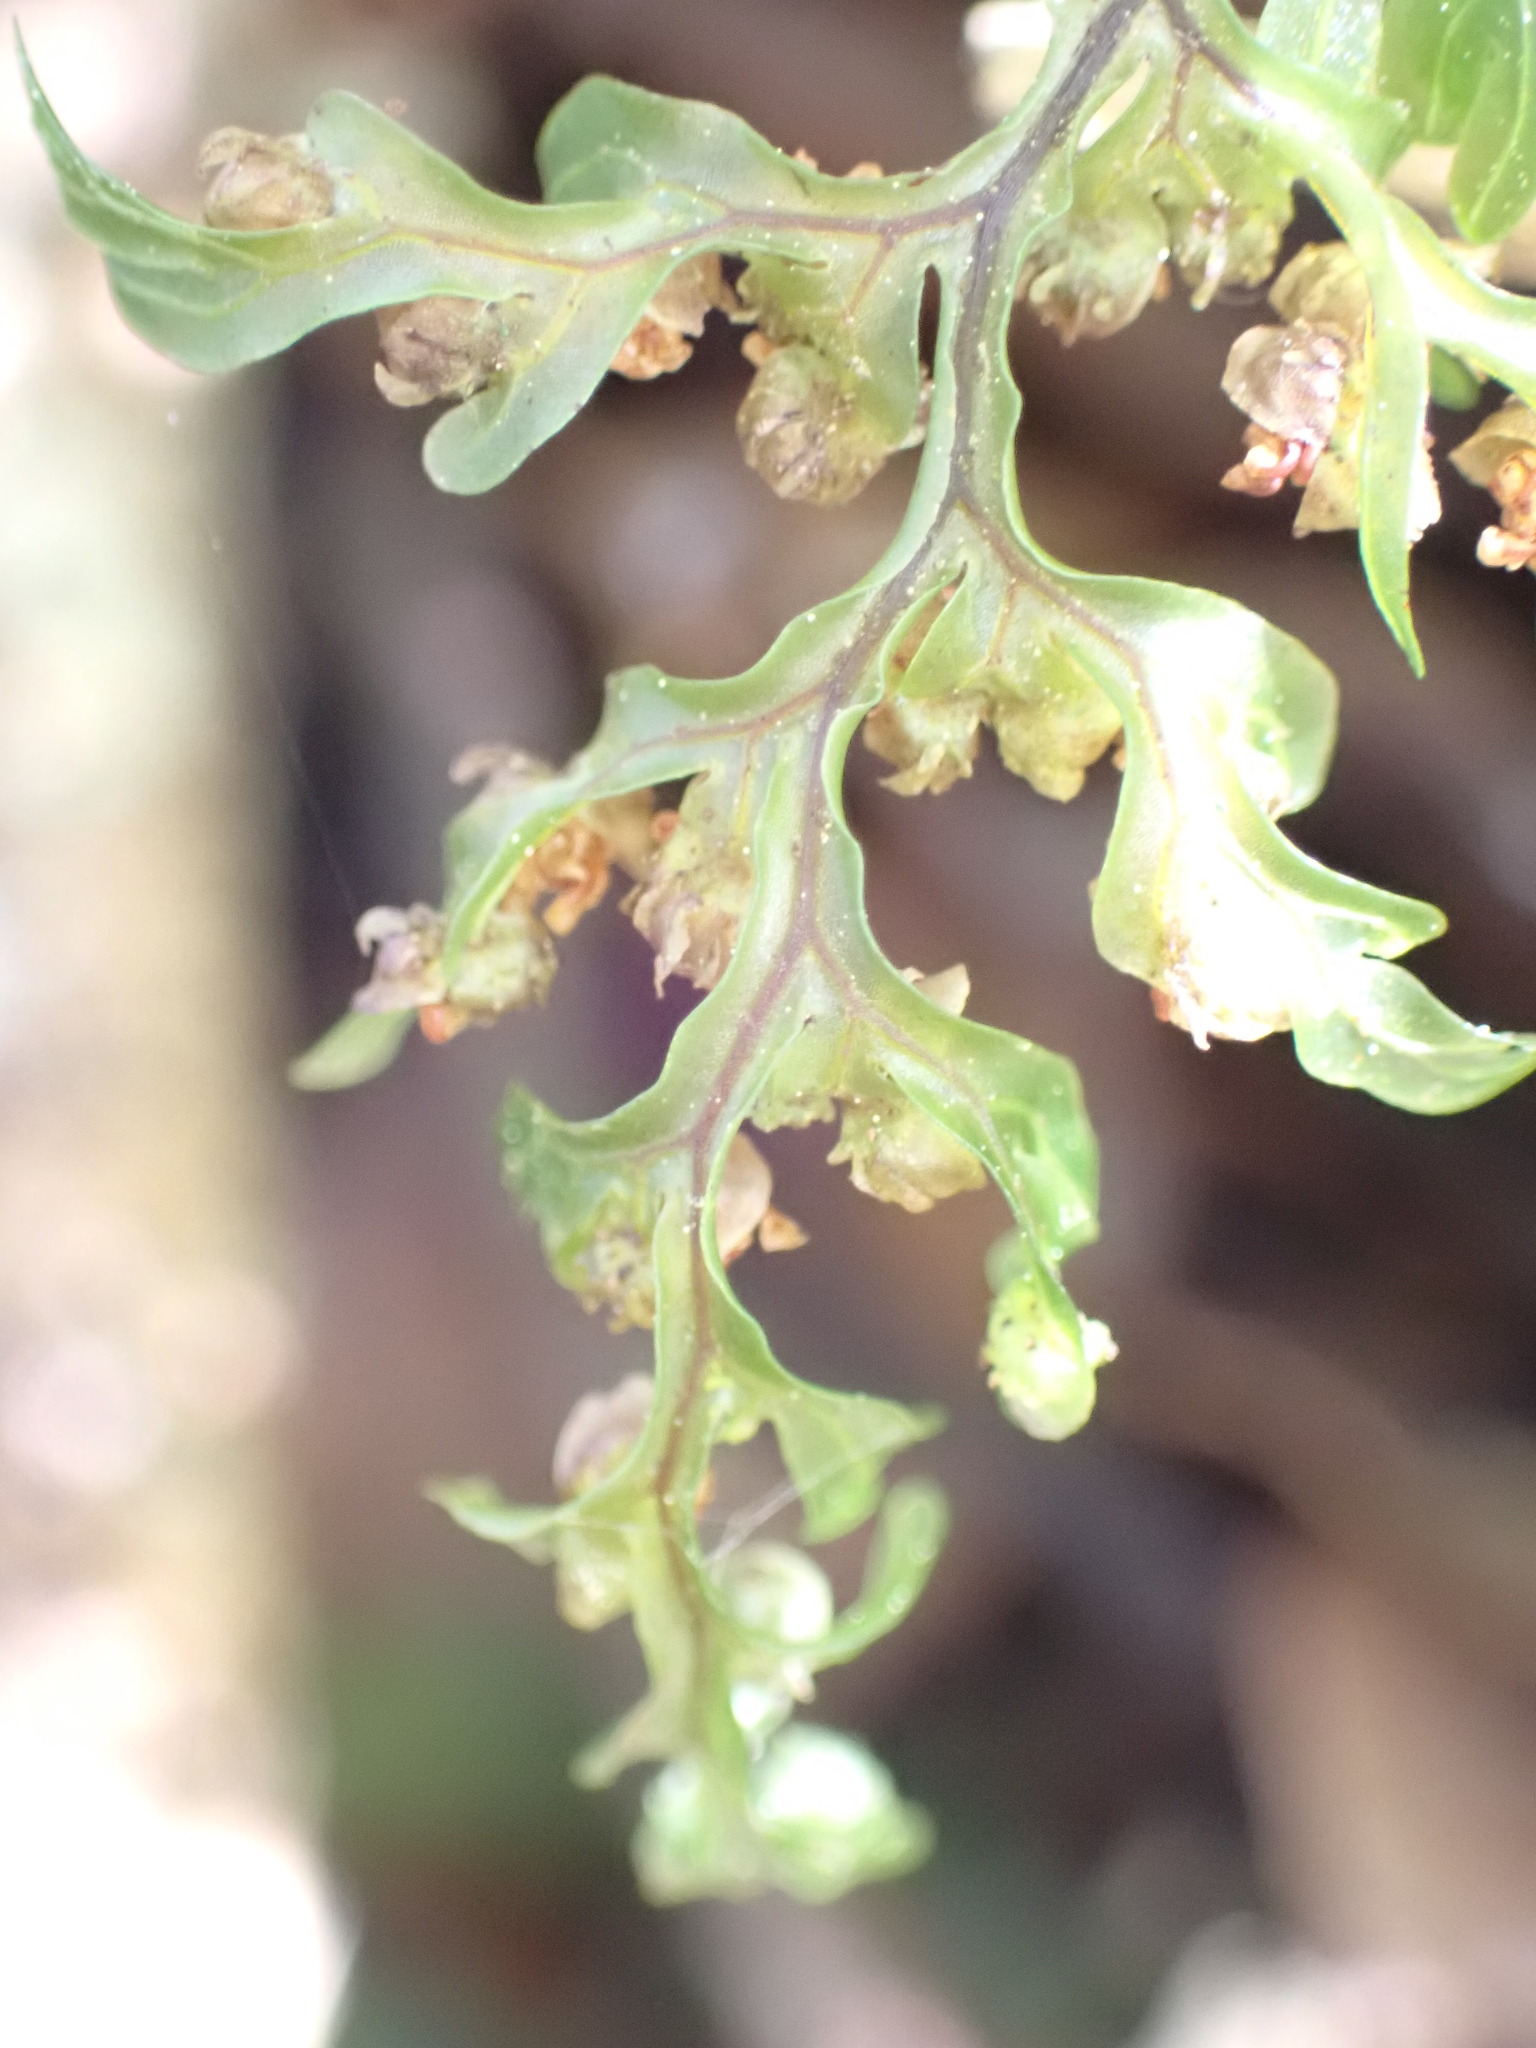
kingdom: Plantae
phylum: Tracheophyta
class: Polypodiopsida
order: Hymenophyllales
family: Hymenophyllaceae
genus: Hymenophyllum
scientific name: Hymenophyllum sanguinolentum
